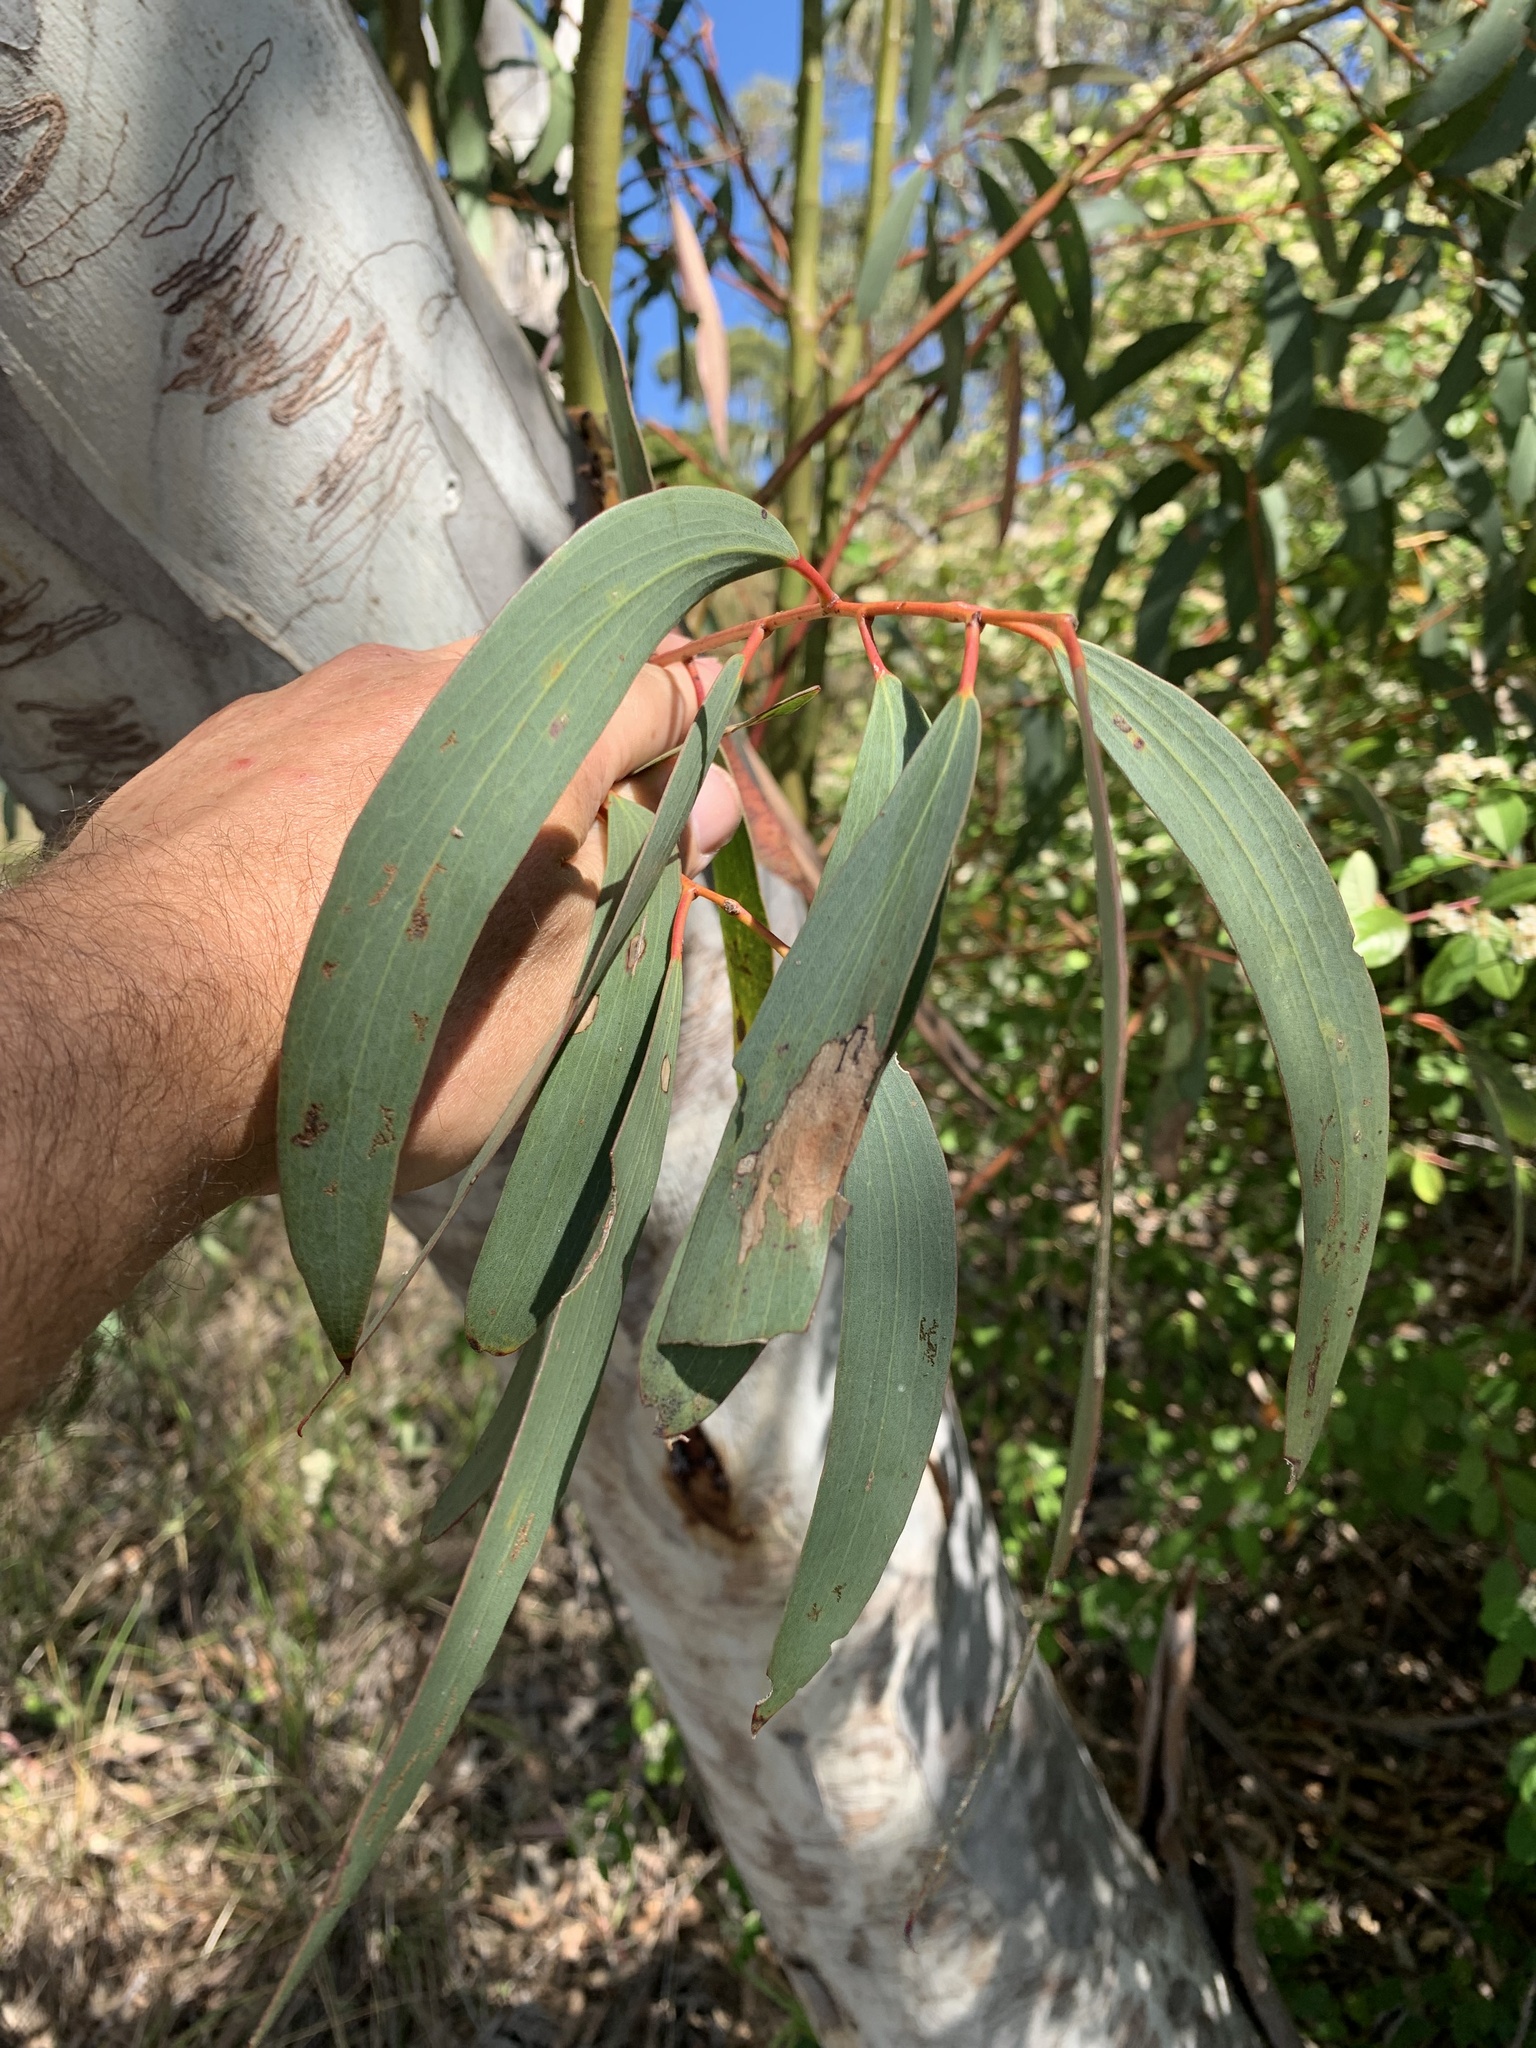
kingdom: Plantae
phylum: Tracheophyta
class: Magnoliopsida
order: Myrtales
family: Myrtaceae
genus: Eucalyptus
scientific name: Eucalyptus pauciflora
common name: Snow gum
